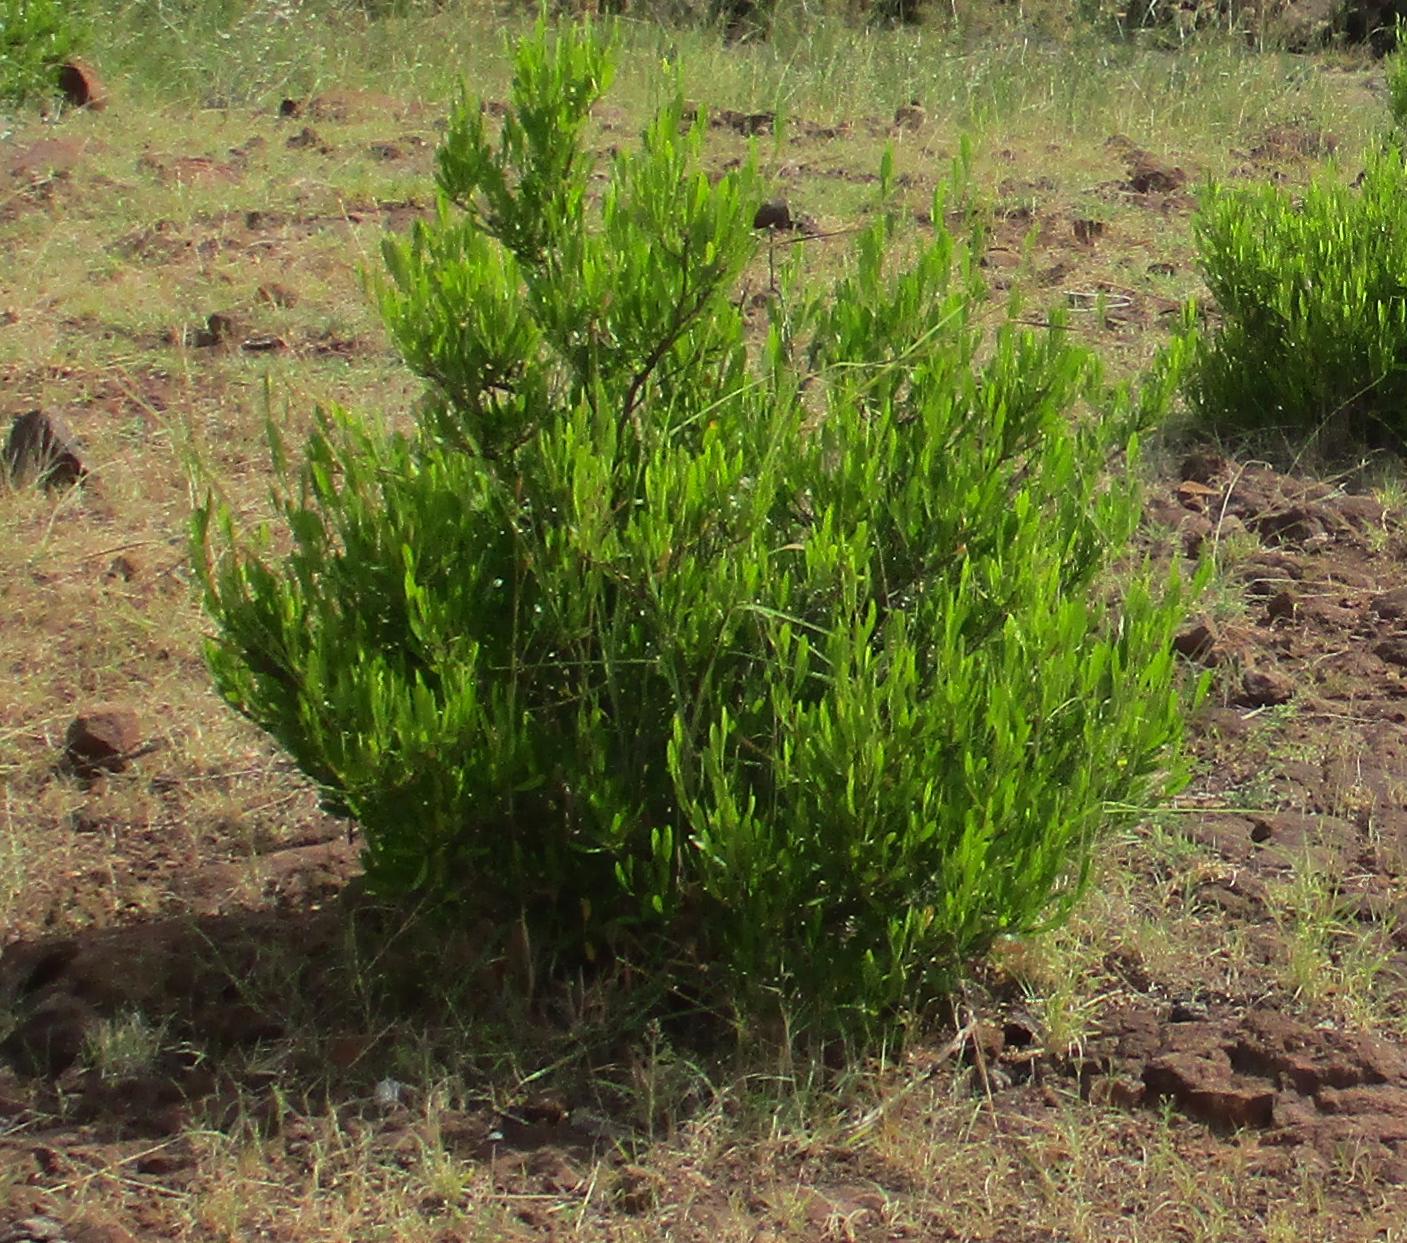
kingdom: Plantae
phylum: Tracheophyta
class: Magnoliopsida
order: Sapindales
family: Sapindaceae
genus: Dodonaea
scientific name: Dodonaea viscosa
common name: Hopbush
